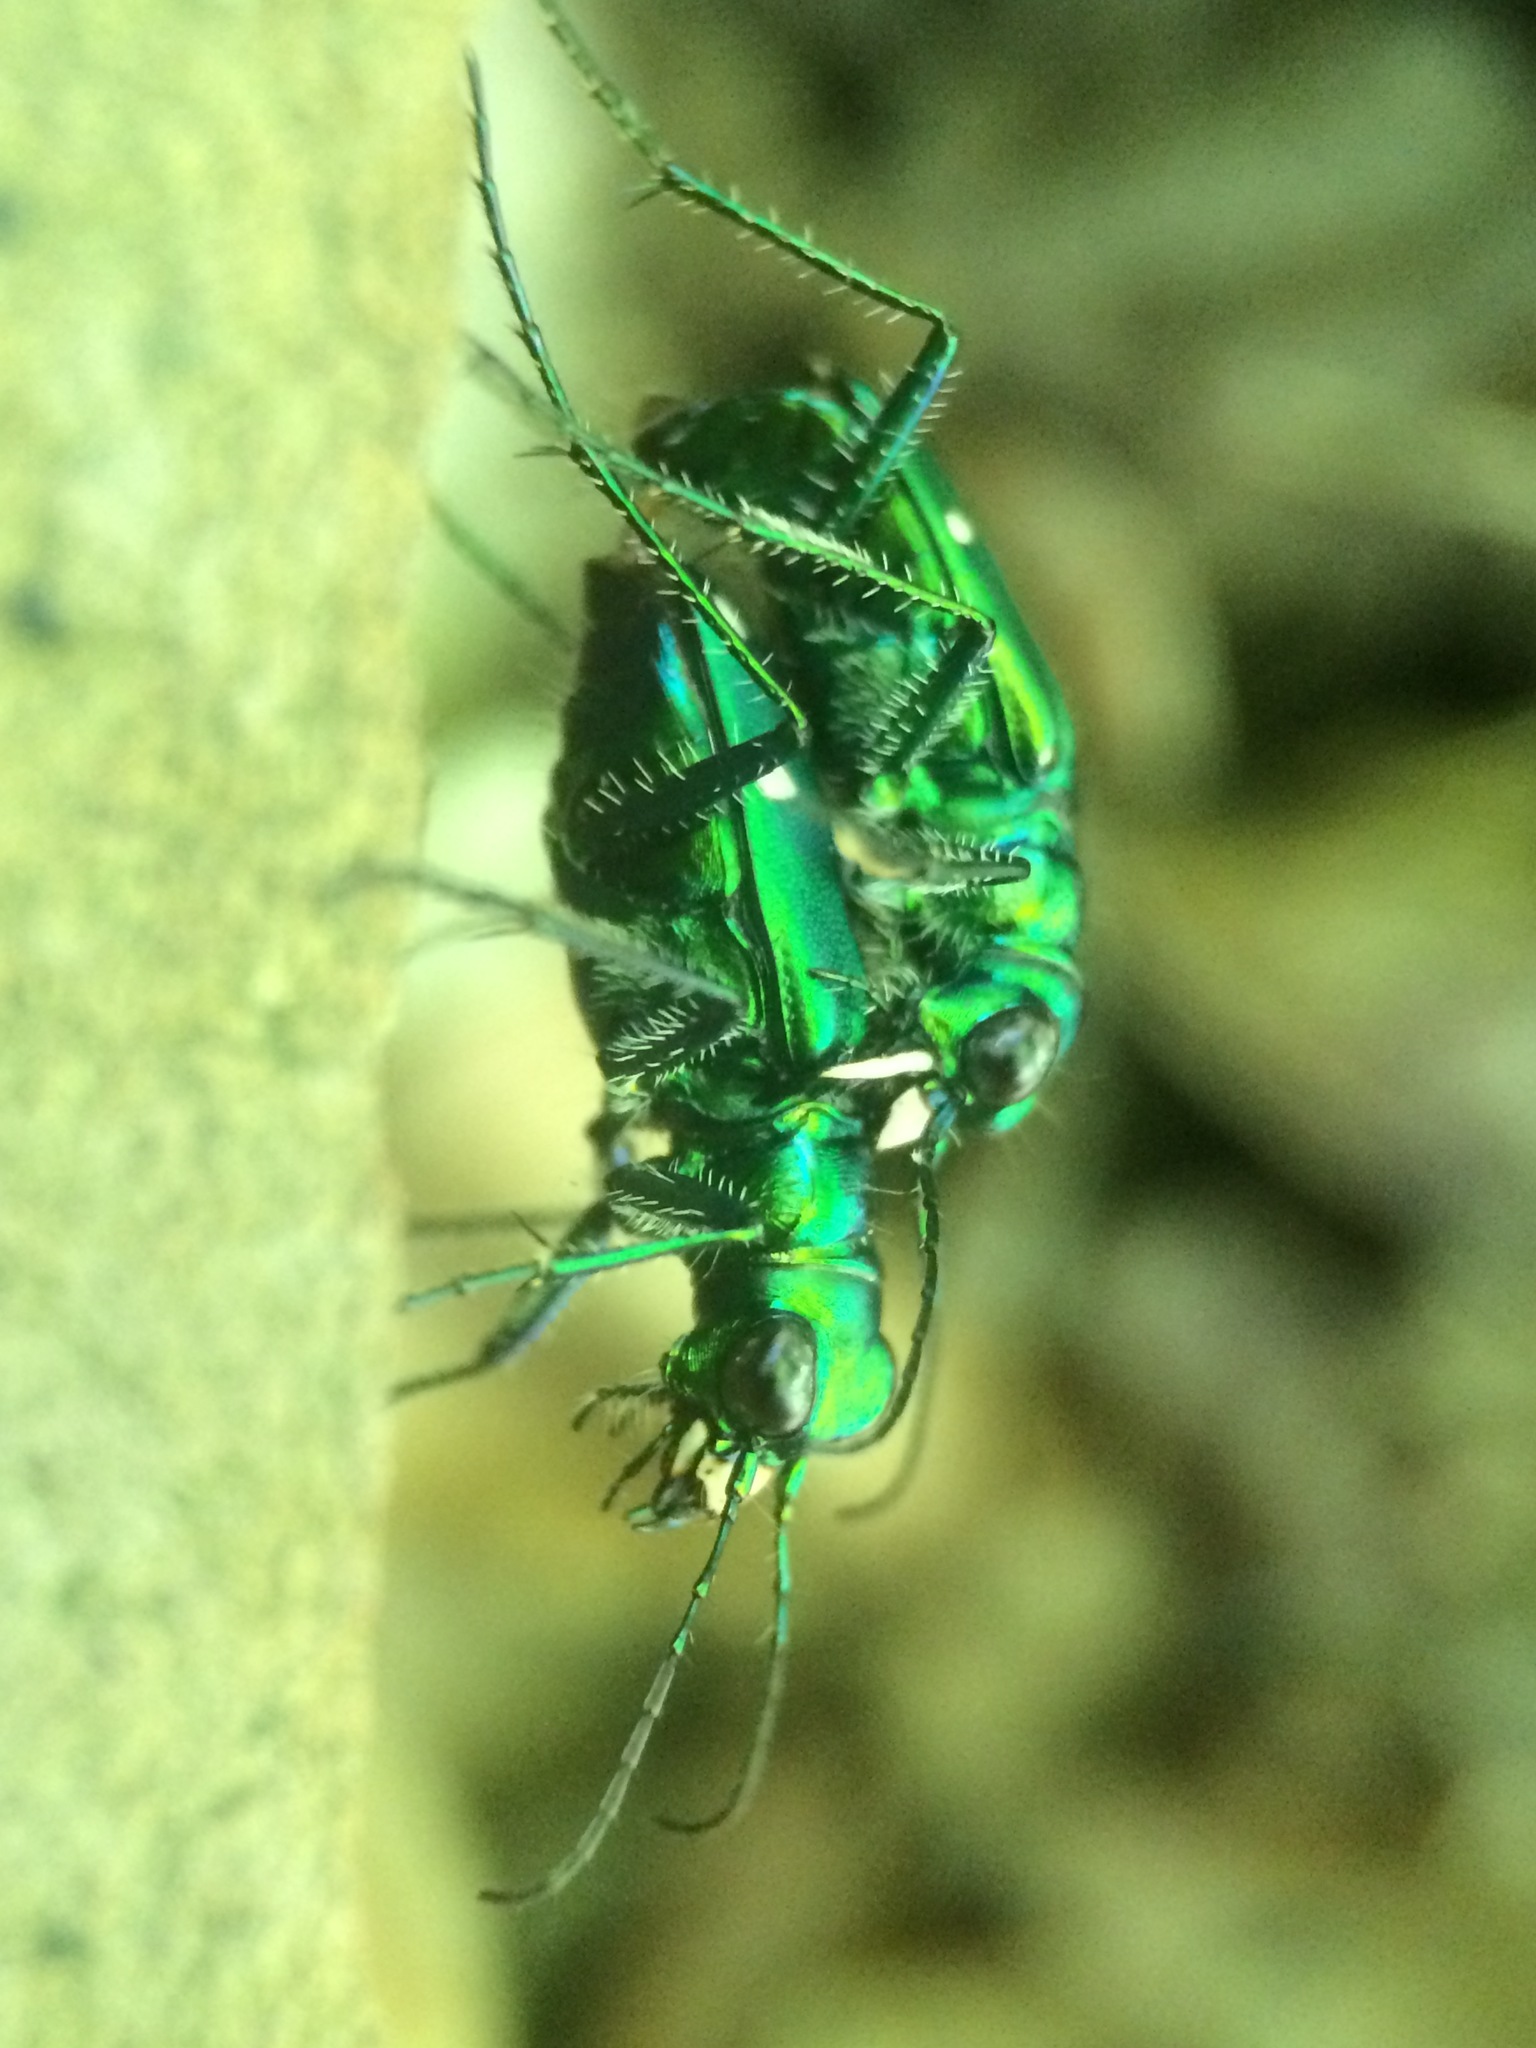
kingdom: Animalia
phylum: Arthropoda
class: Insecta
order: Coleoptera
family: Carabidae
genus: Cicindela
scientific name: Cicindela sexguttata
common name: Six-spotted tiger beetle
